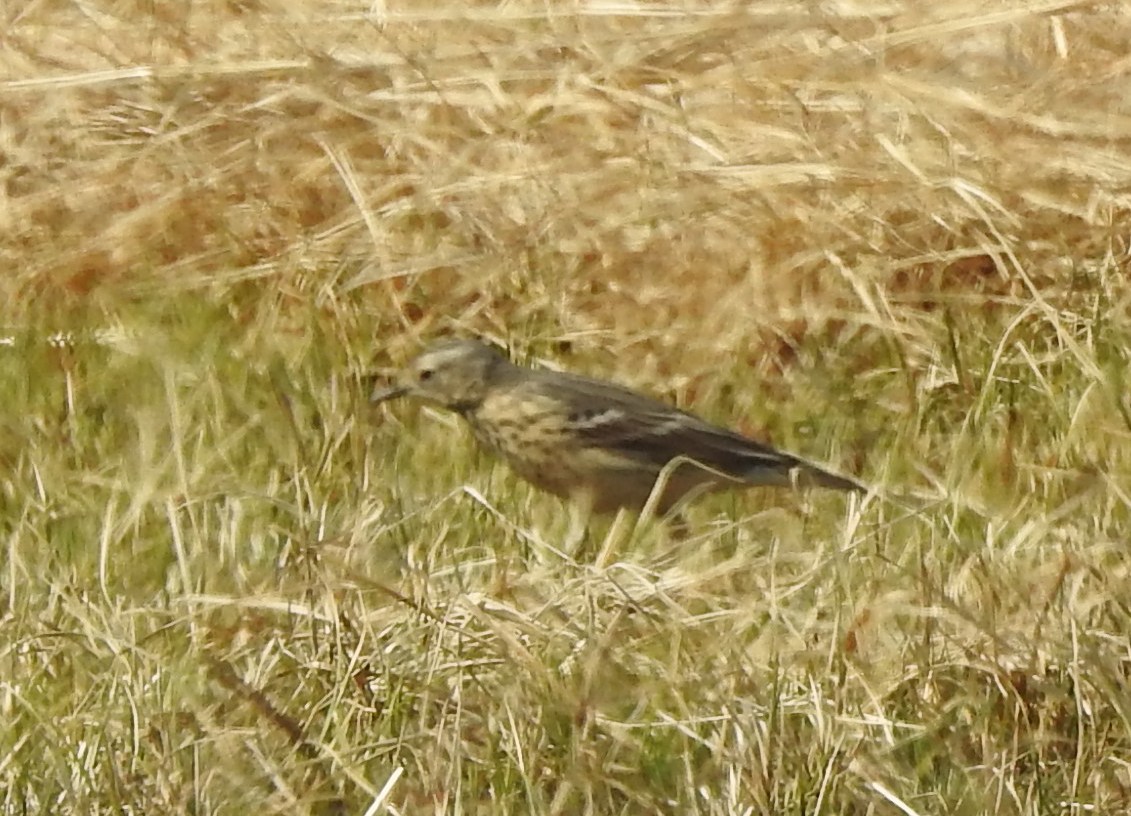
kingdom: Animalia
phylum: Chordata
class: Aves
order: Passeriformes
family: Motacillidae
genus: Anthus
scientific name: Anthus rubescens
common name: Buff-bellied pipit
